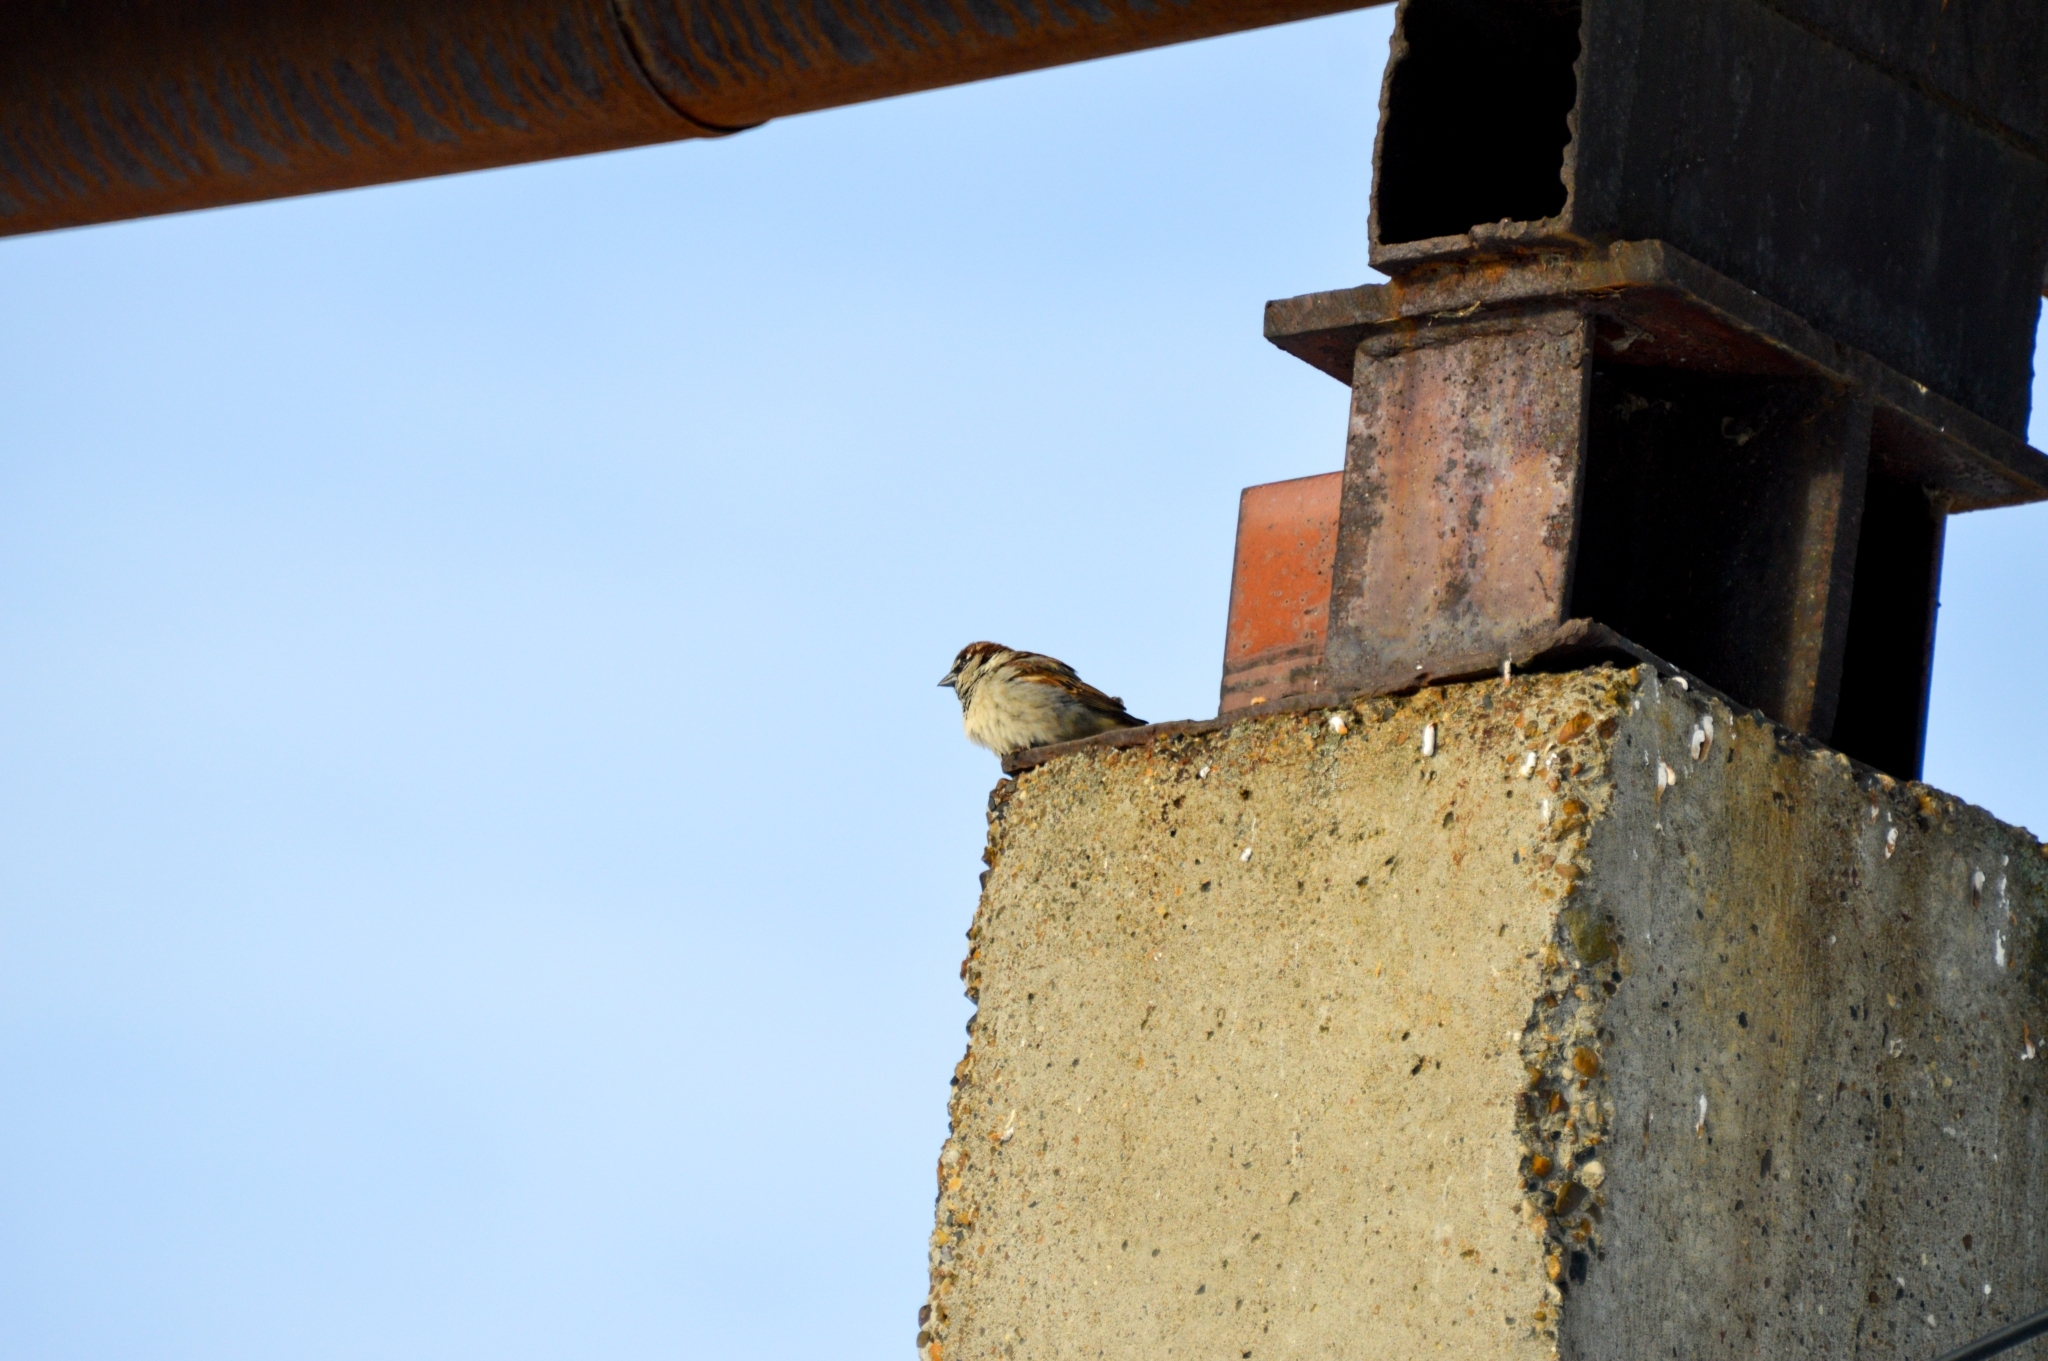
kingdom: Animalia
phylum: Chordata
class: Aves
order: Passeriformes
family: Passeridae
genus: Passer
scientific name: Passer domesticus
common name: House sparrow
